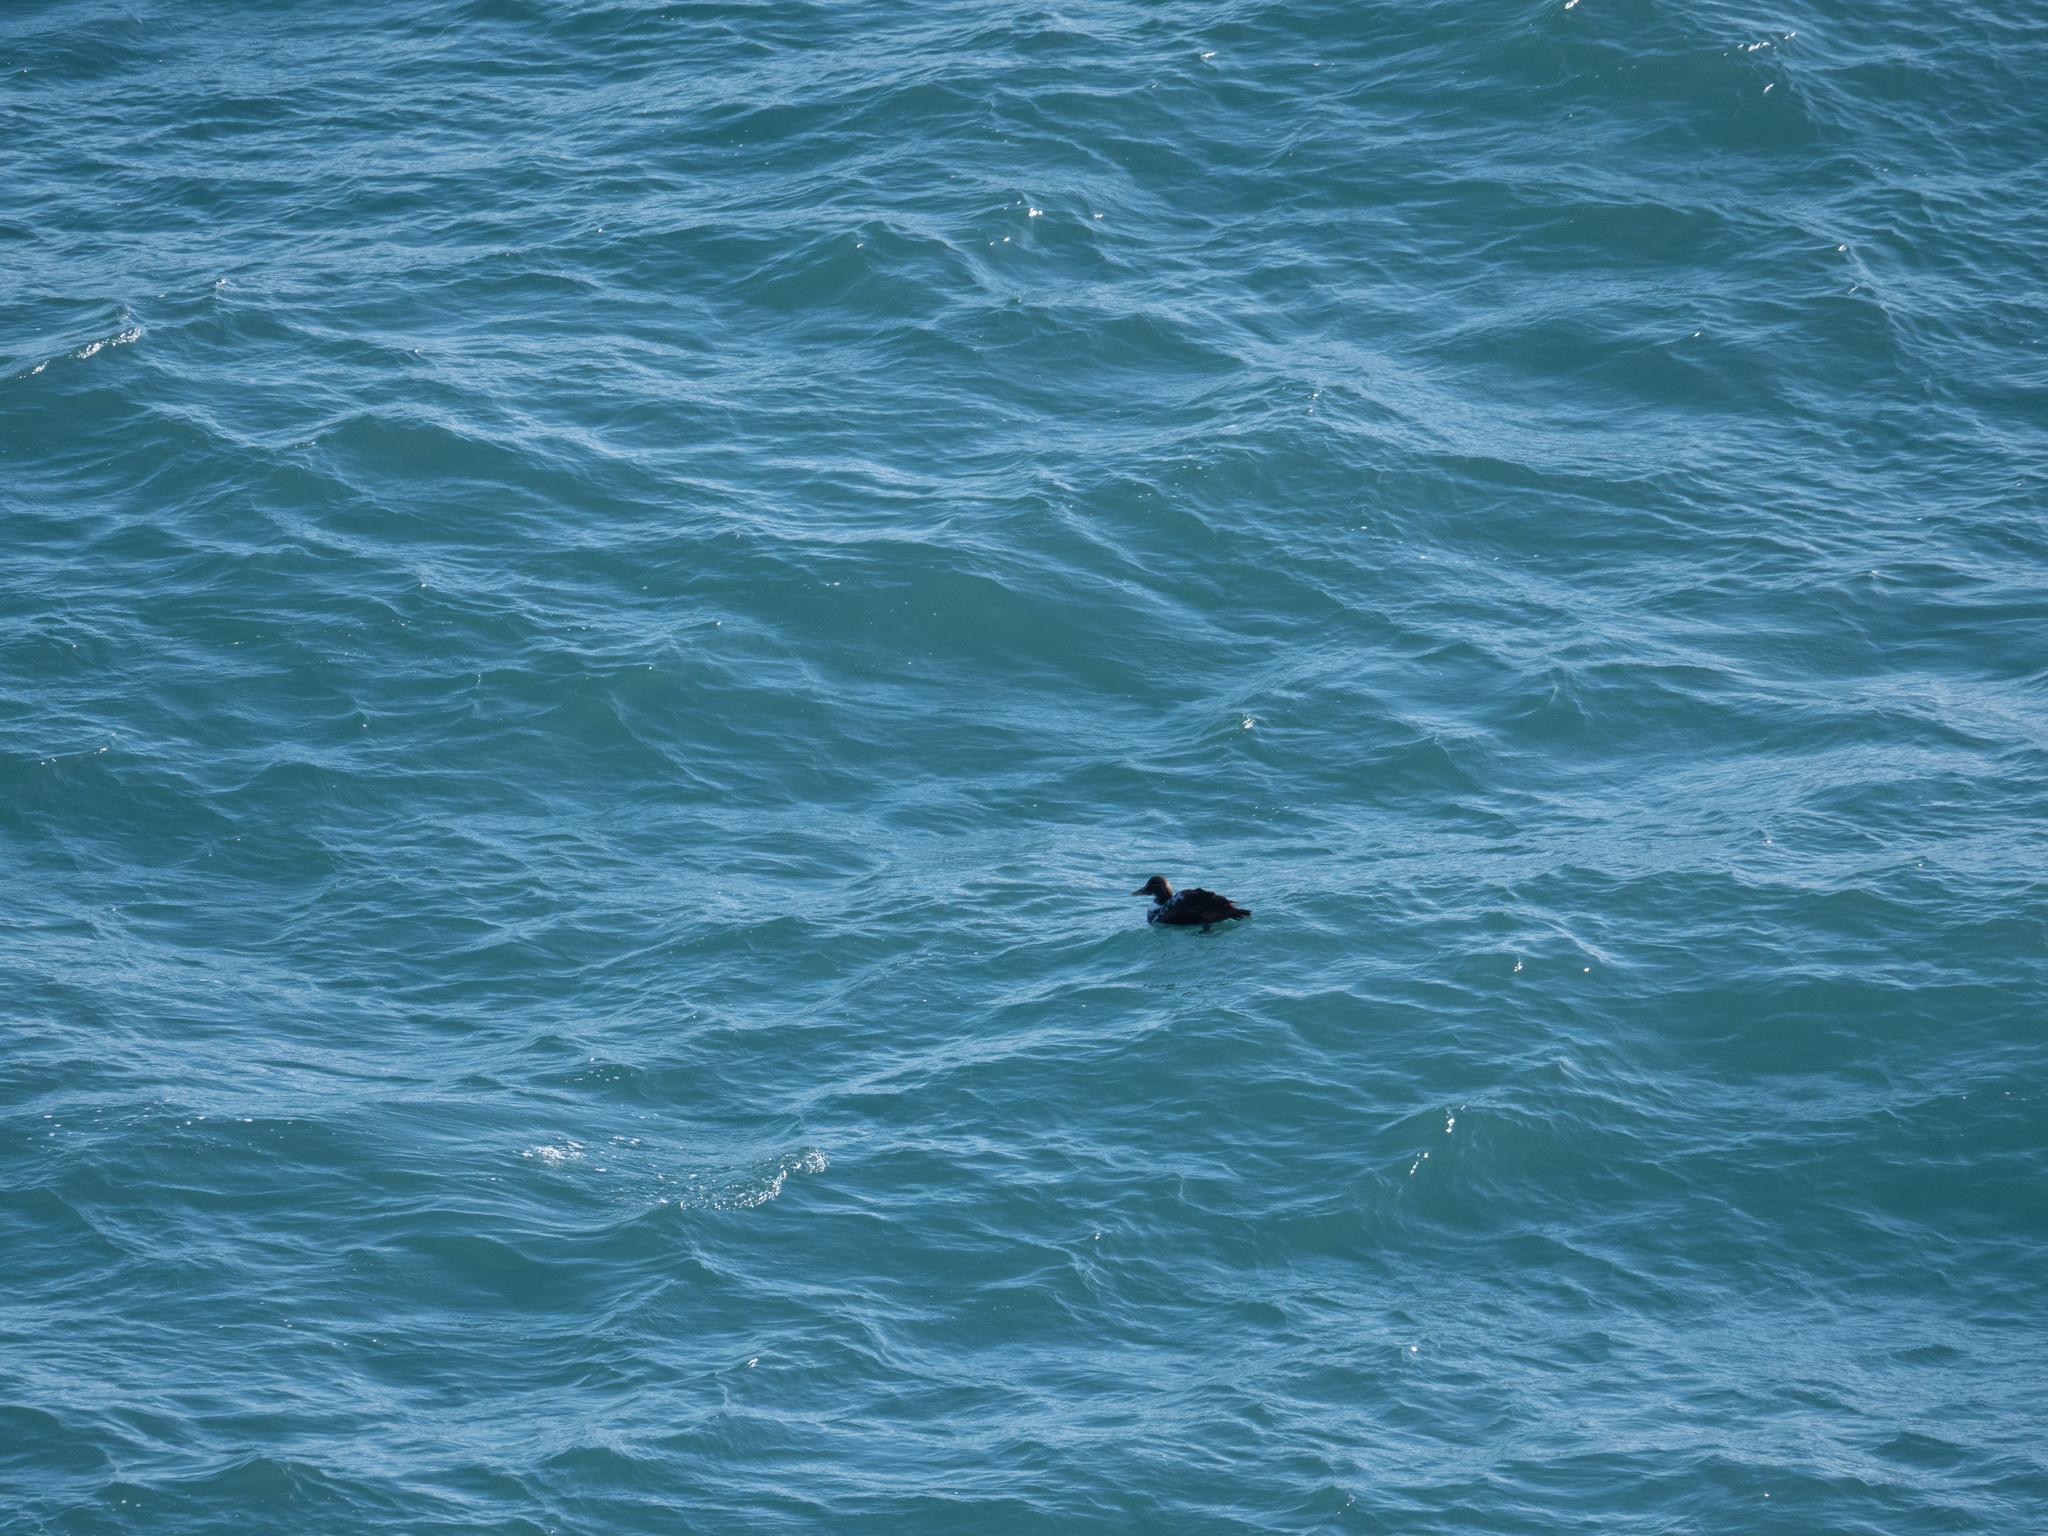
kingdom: Animalia
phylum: Chordata
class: Aves
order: Anseriformes
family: Anatidae
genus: Somateria
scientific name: Somateria mollissima
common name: Common eider
